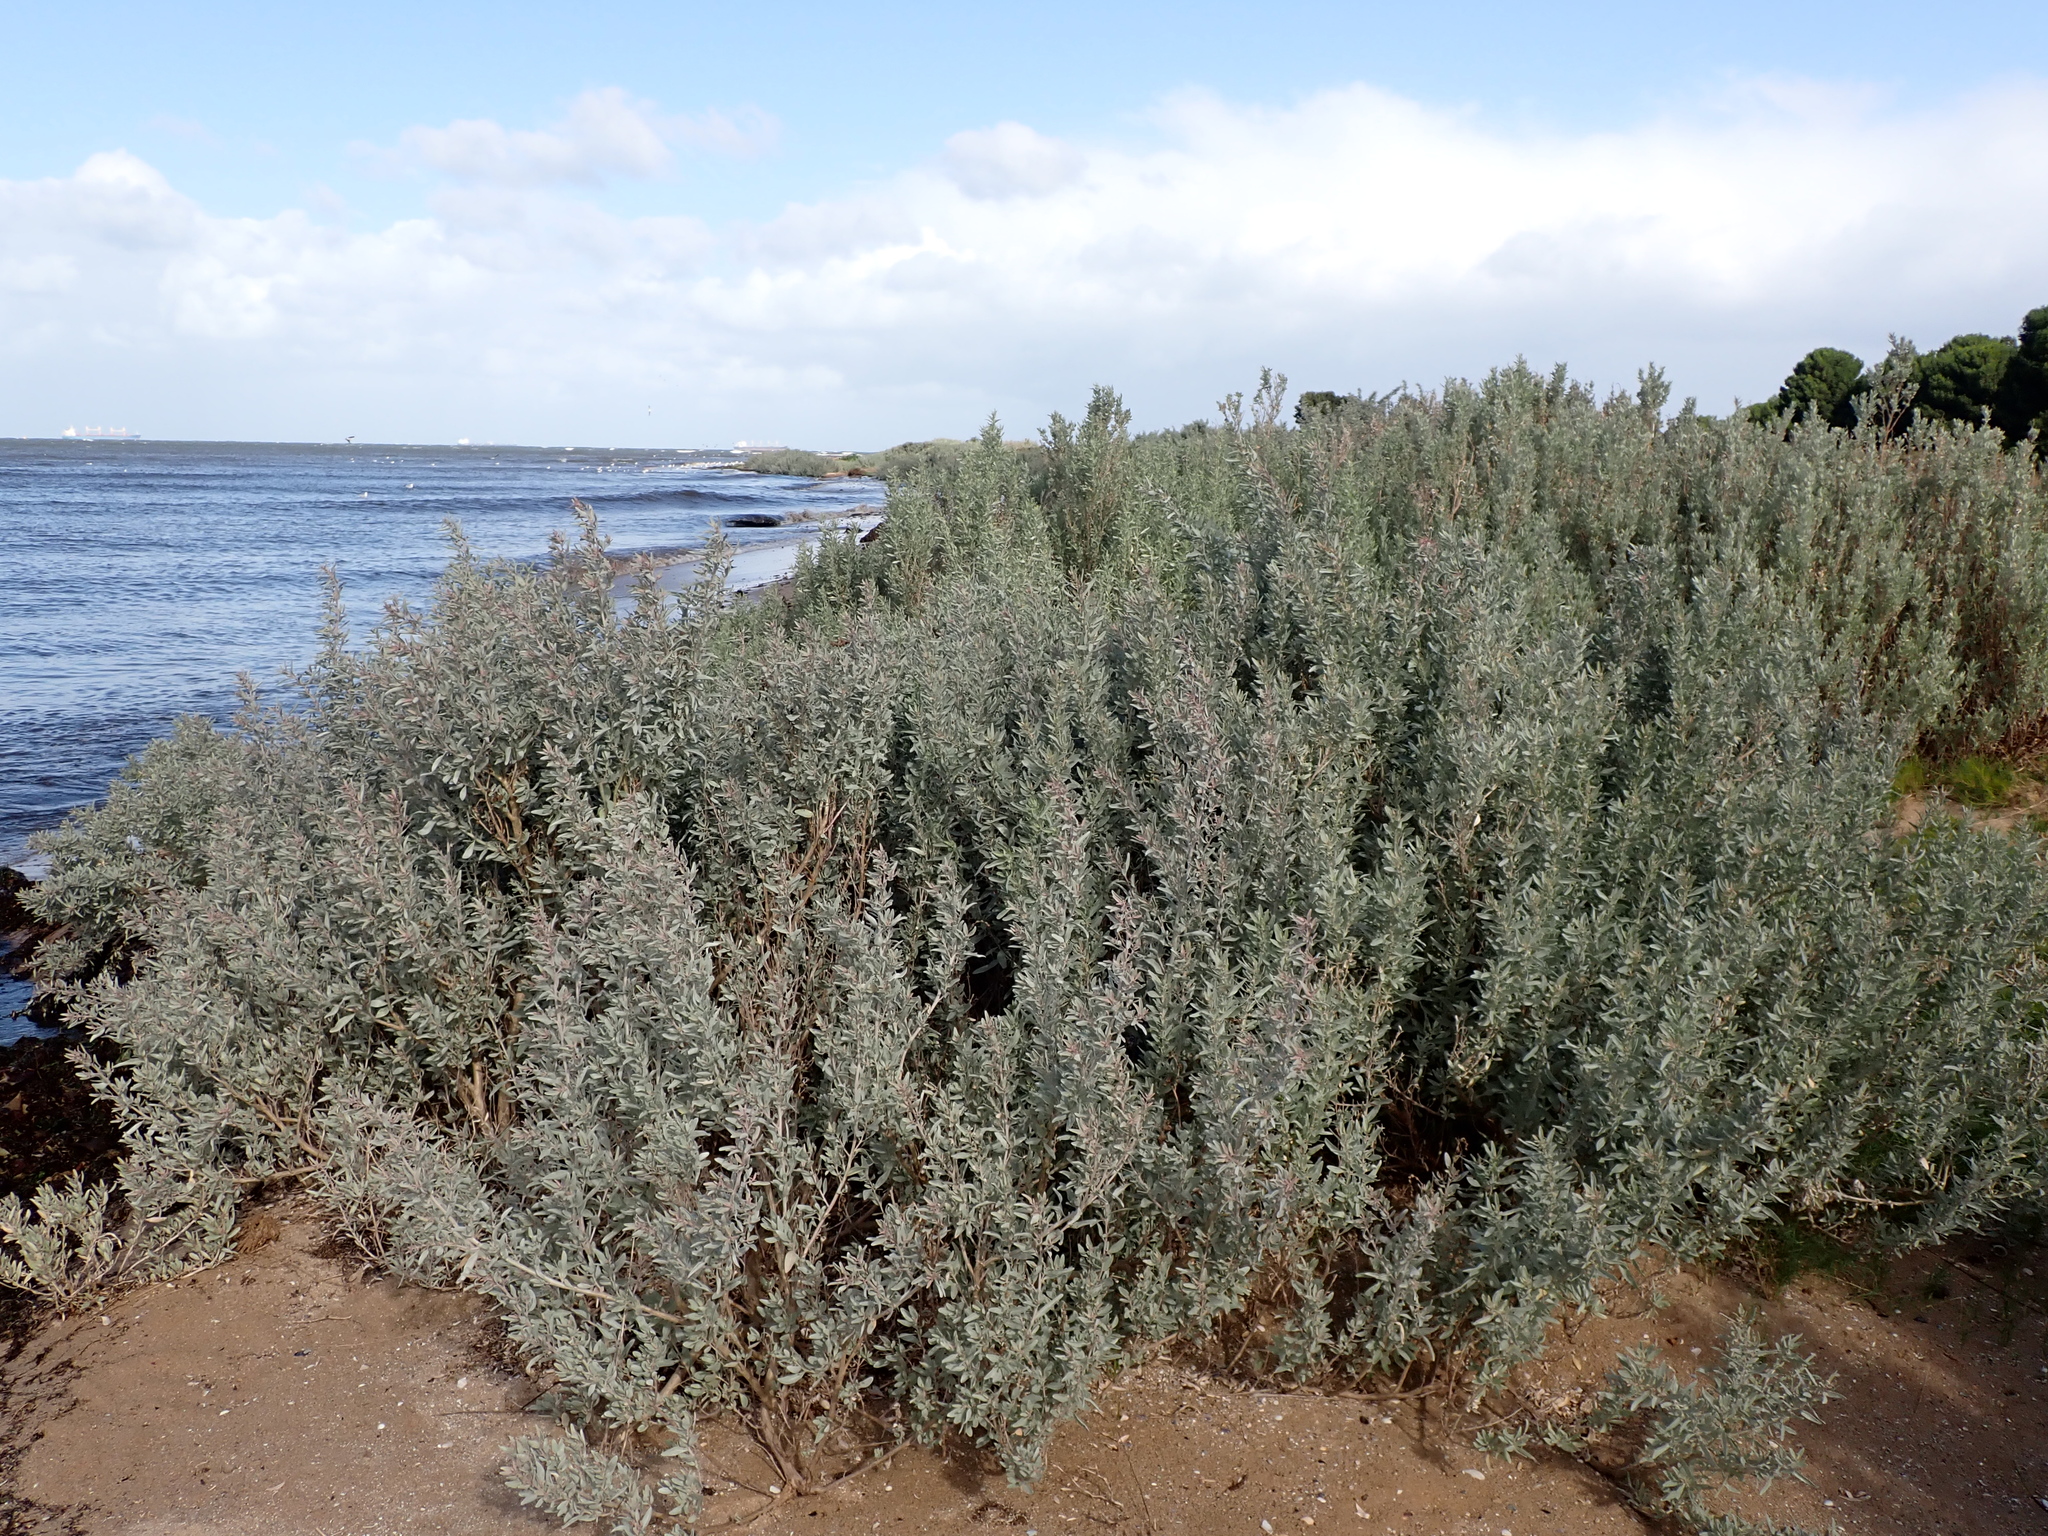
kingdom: Plantae
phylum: Tracheophyta
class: Magnoliopsida
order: Caryophyllales
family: Amaranthaceae
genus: Atriplex
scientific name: Atriplex cinerea
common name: Grey saltbush
